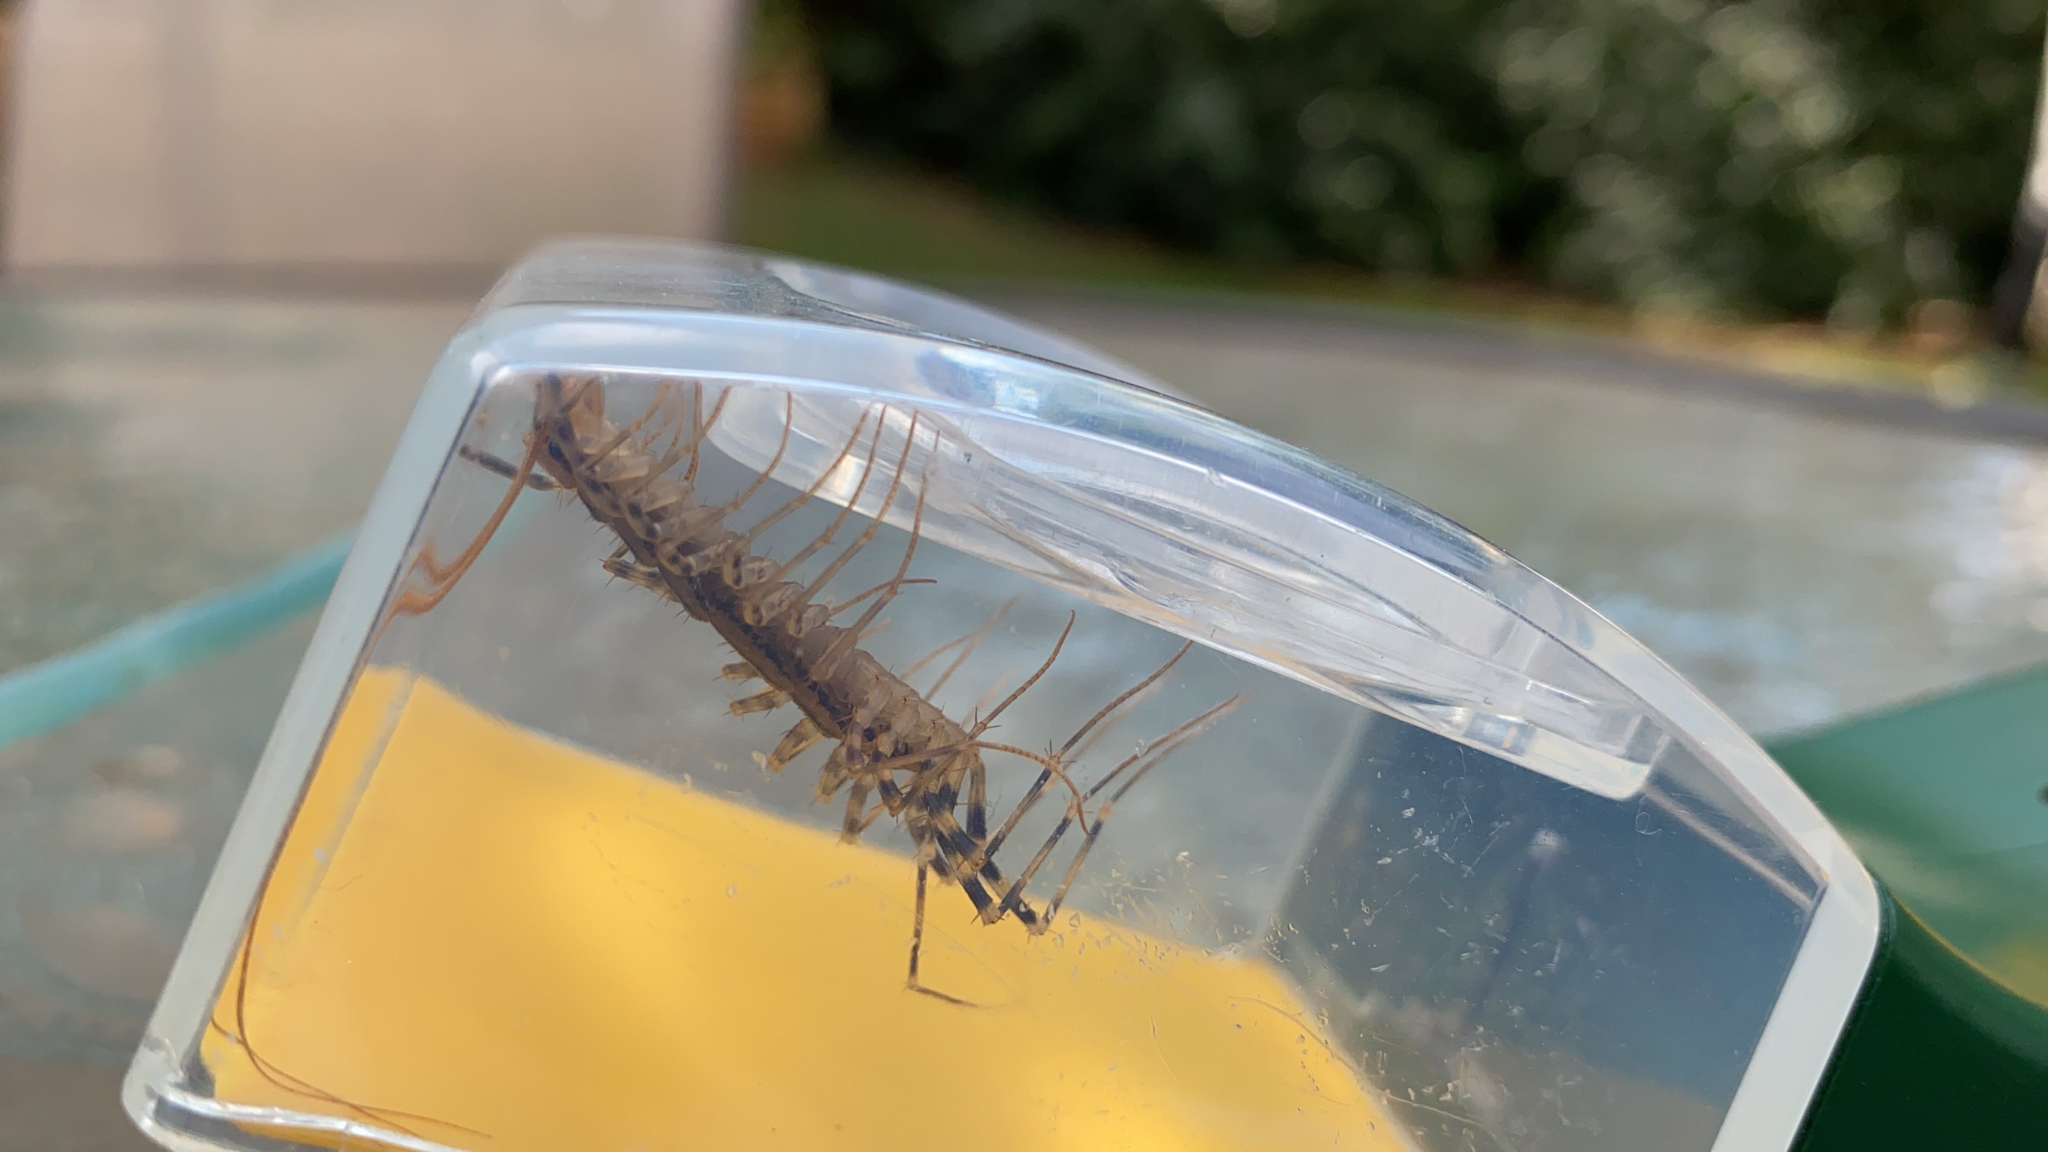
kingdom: Animalia
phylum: Arthropoda
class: Chilopoda
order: Scutigeromorpha
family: Scutigeridae
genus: Scutigera
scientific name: Scutigera coleoptrata
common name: House centipede
